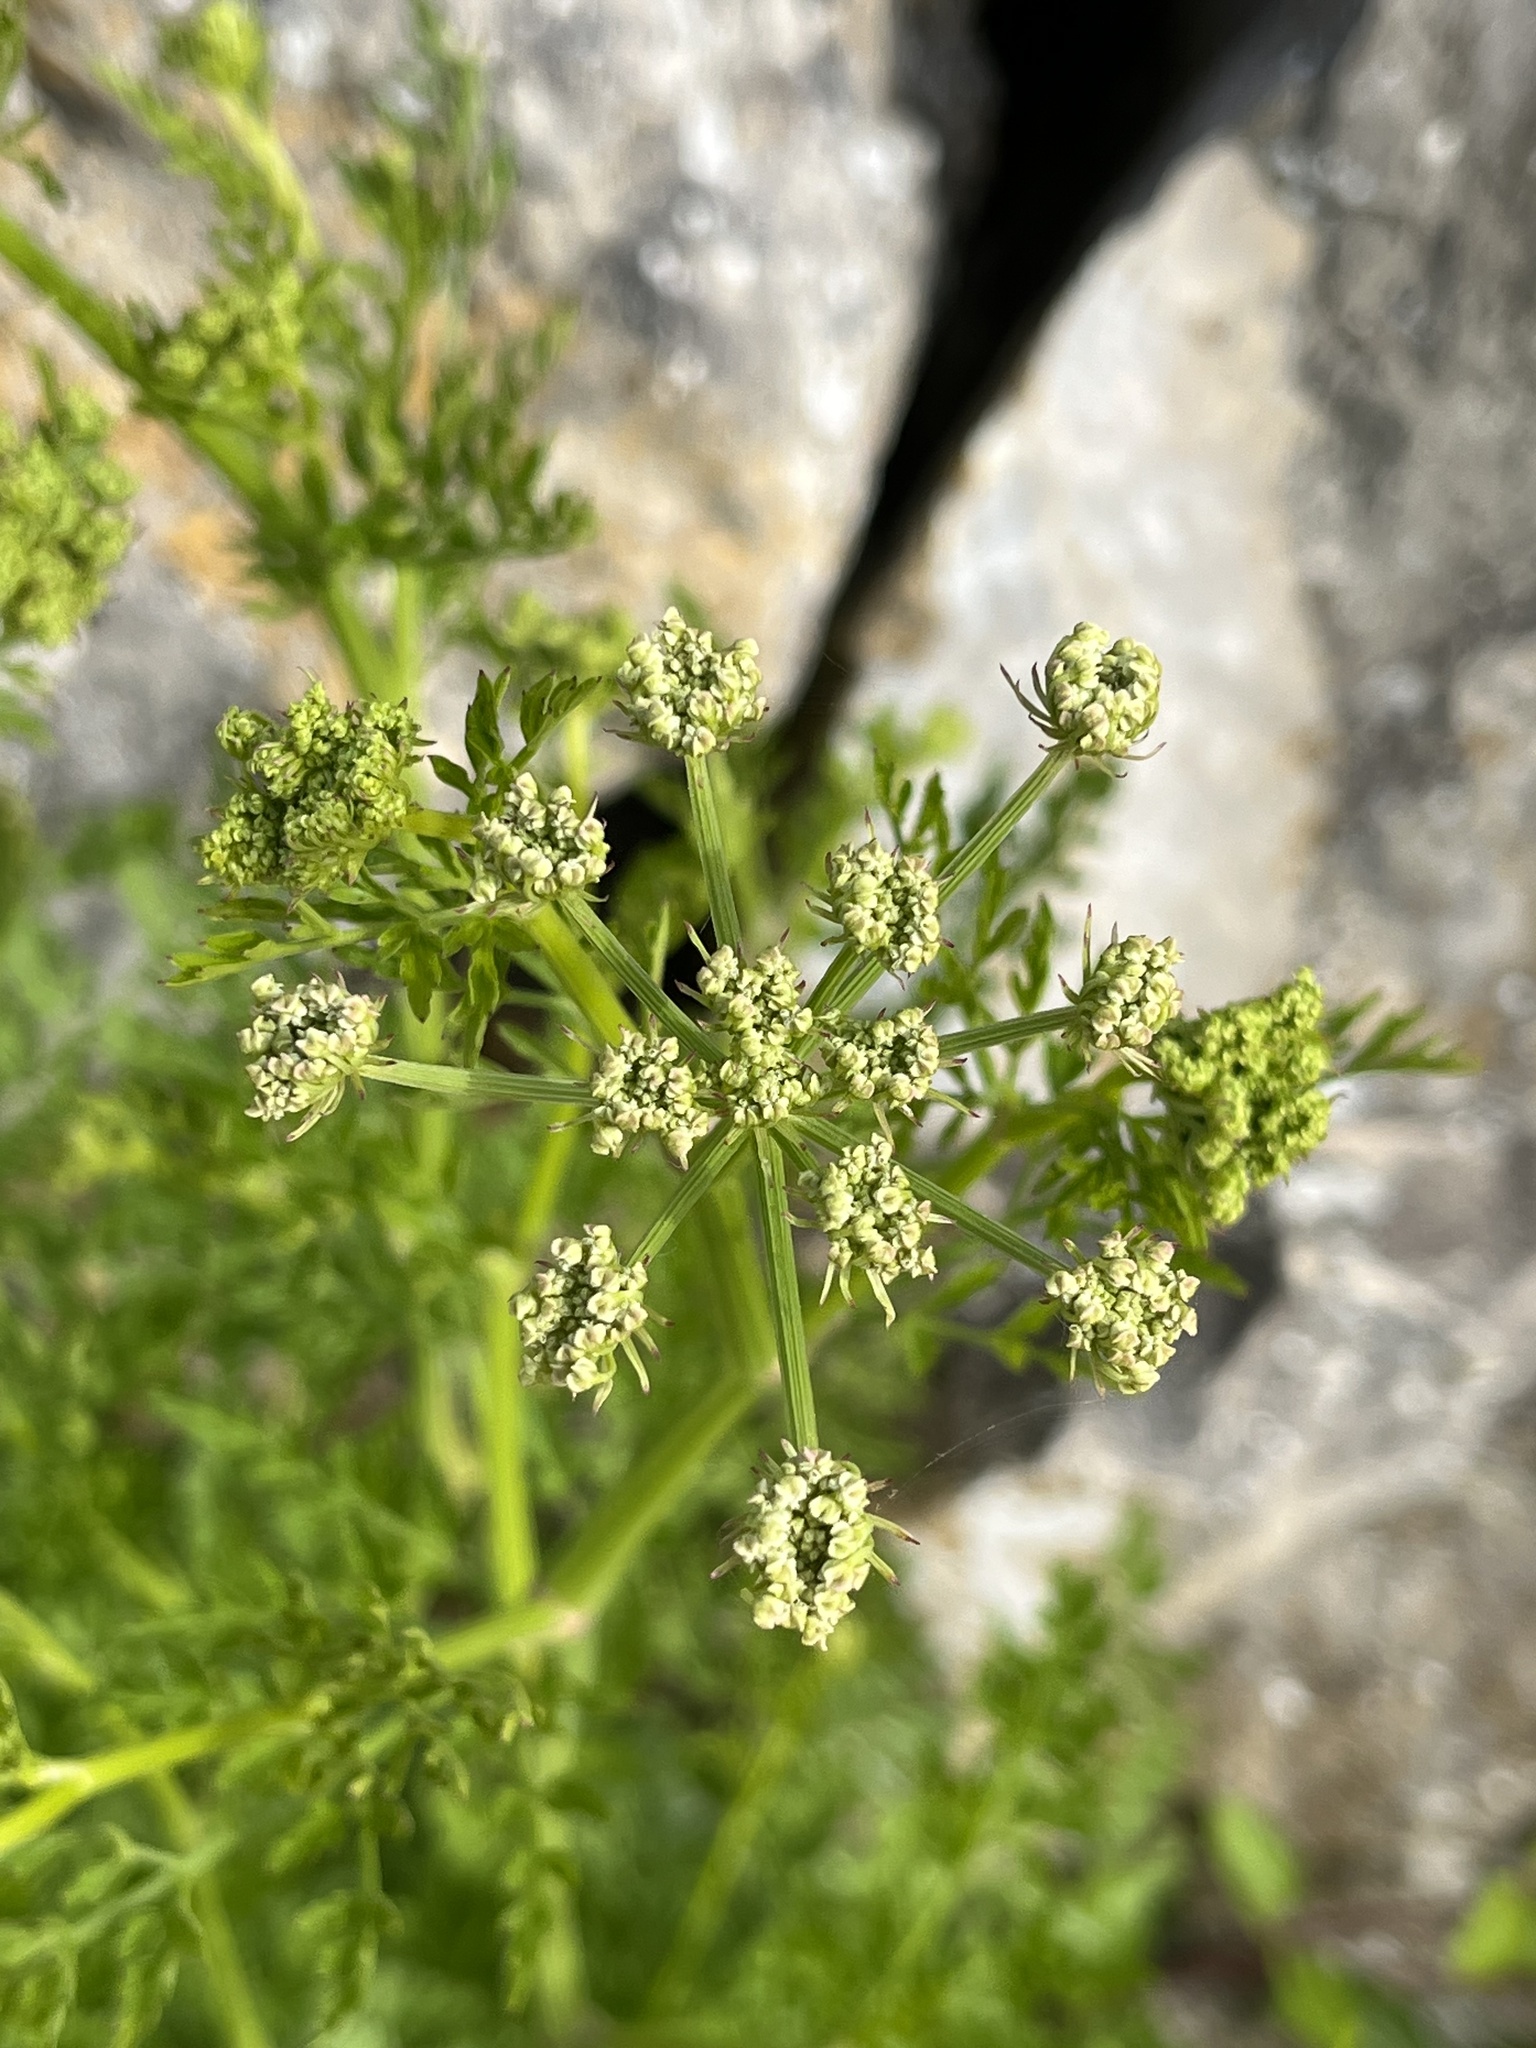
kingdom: Plantae
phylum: Tracheophyta
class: Magnoliopsida
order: Apiales
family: Apiaceae
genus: Oenanthe
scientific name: Oenanthe crocata
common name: Hemlock water-dropwort
